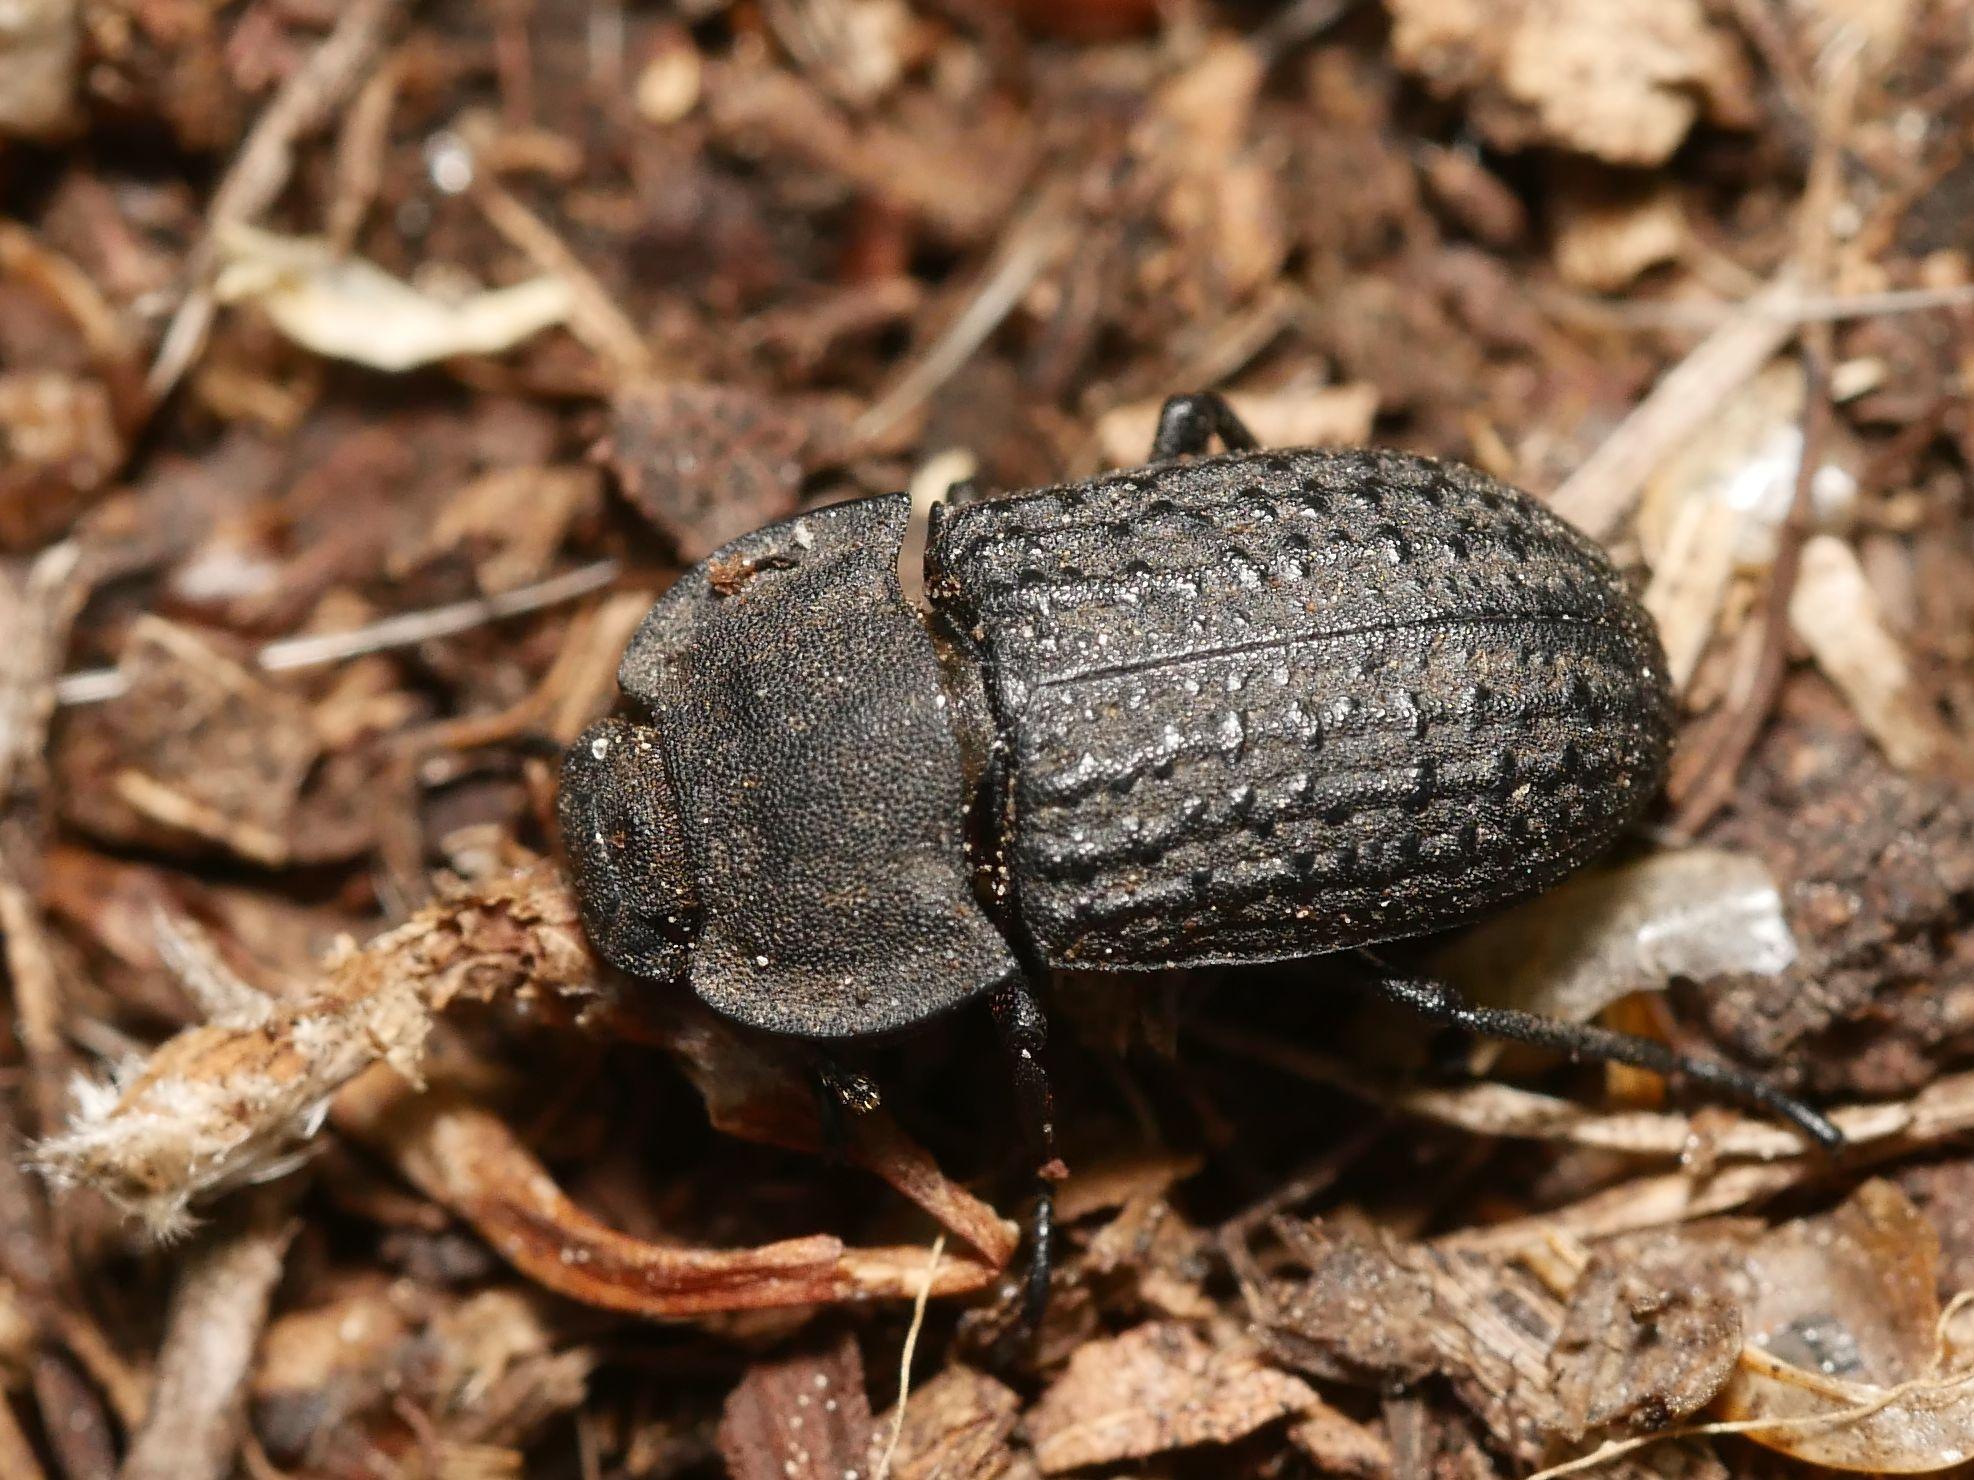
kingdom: Animalia
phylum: Arthropoda
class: Insecta
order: Coleoptera
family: Tenebrionidae
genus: Opatrum
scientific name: Opatrum sabulosum
